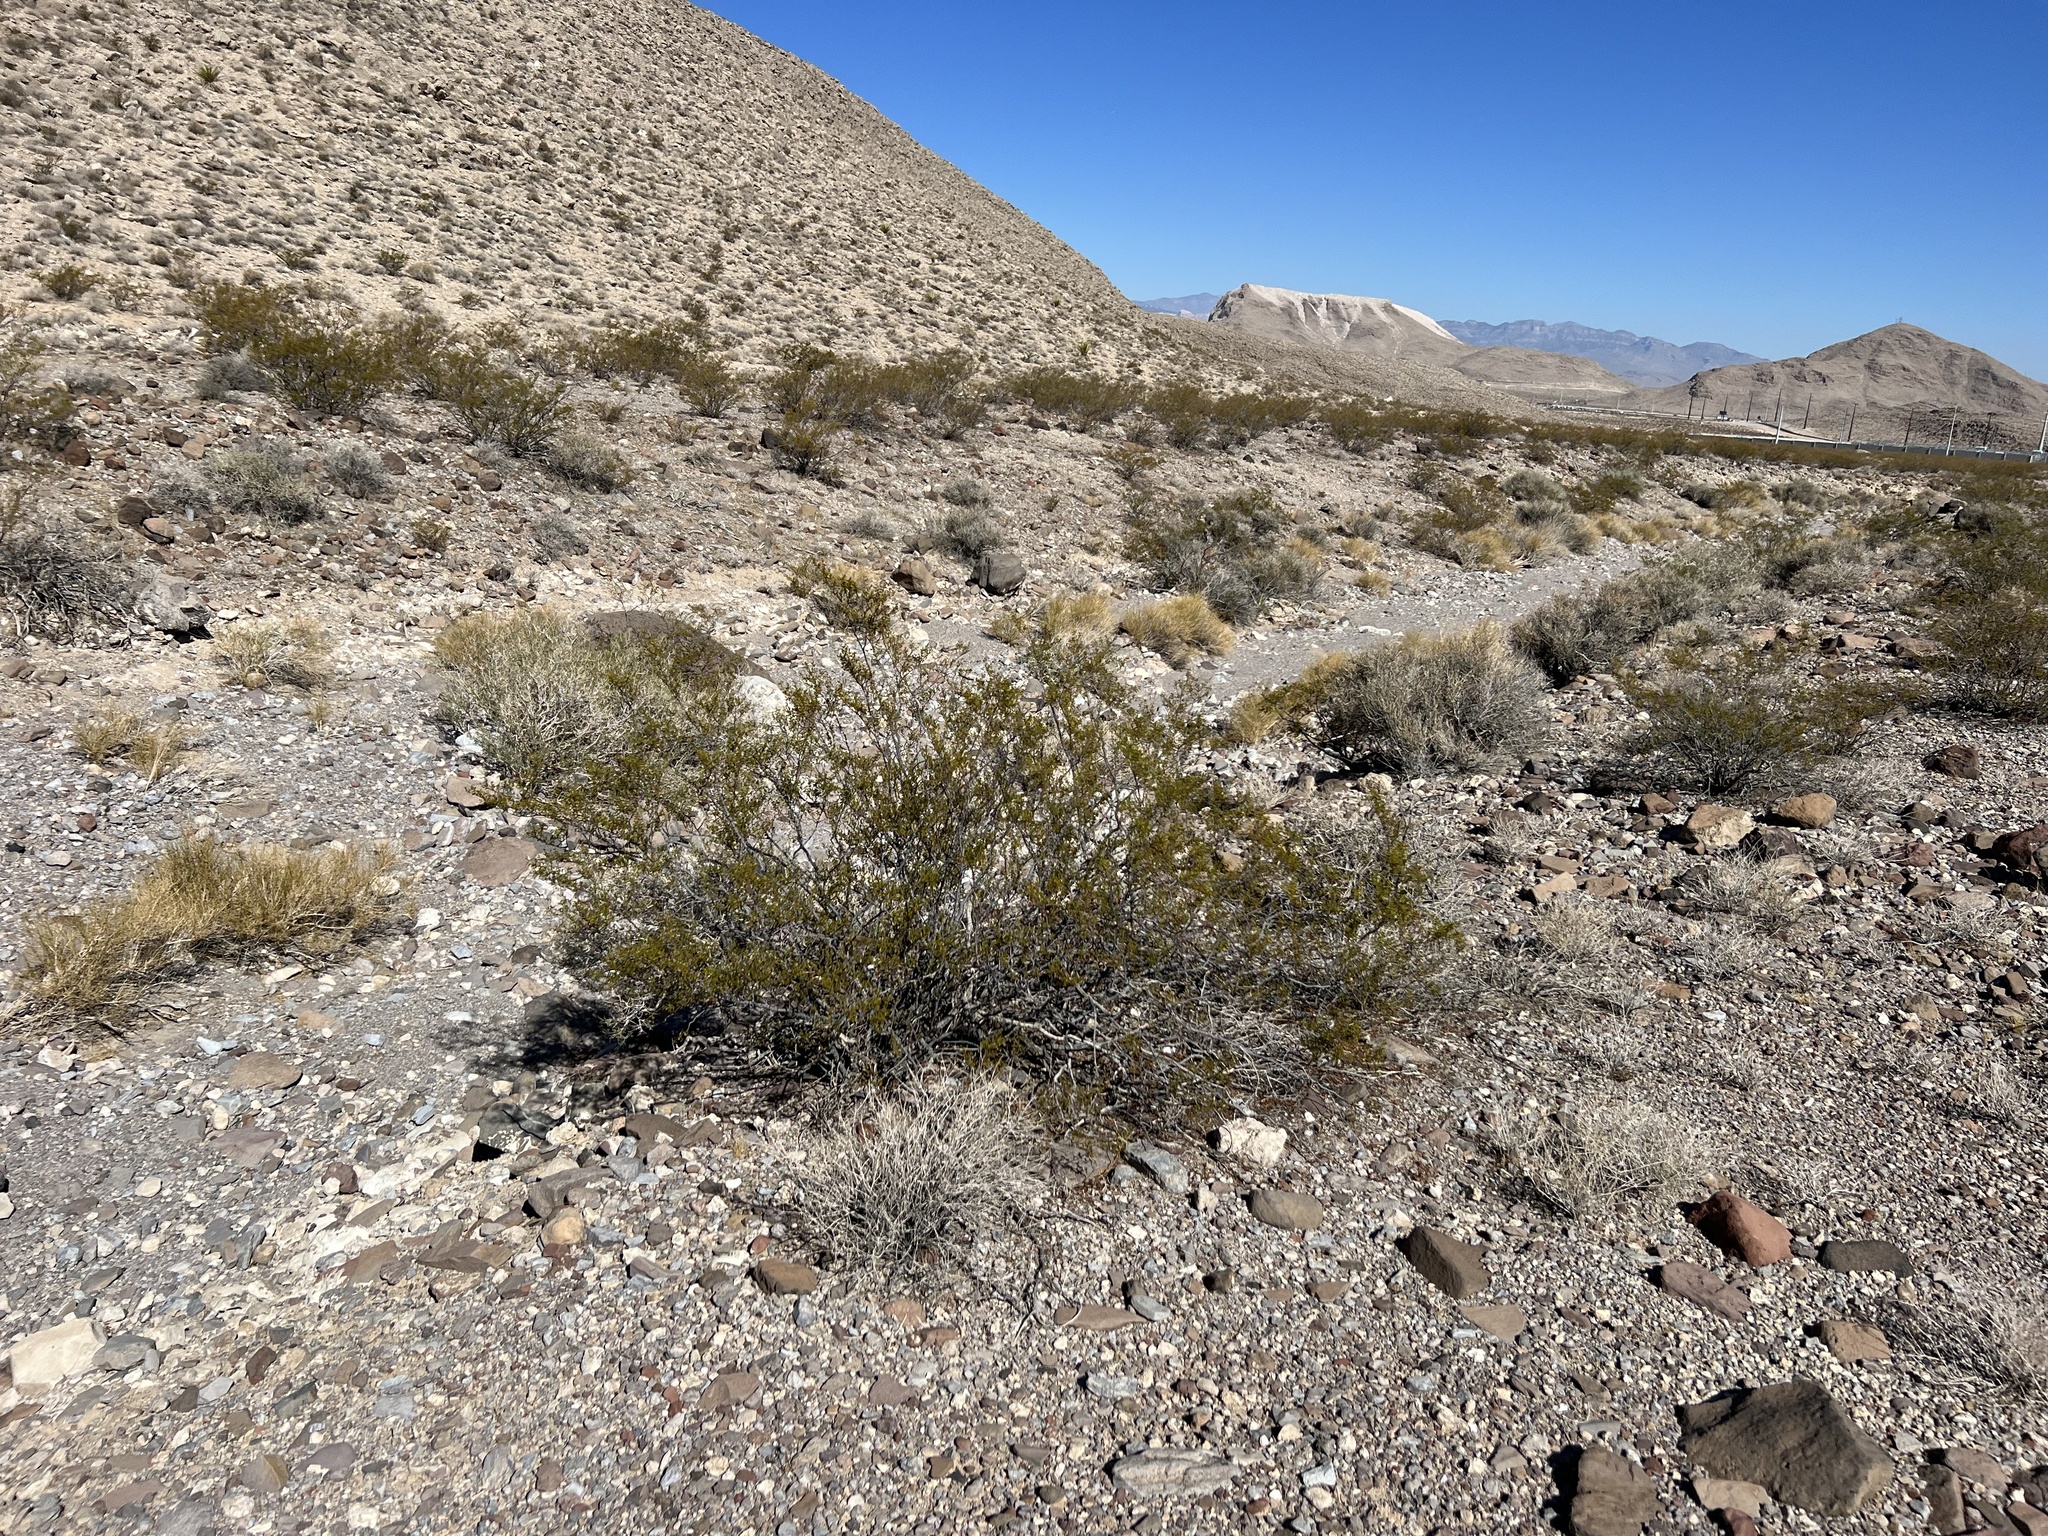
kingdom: Plantae
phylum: Tracheophyta
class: Magnoliopsida
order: Zygophyllales
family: Zygophyllaceae
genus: Larrea
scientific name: Larrea tridentata
